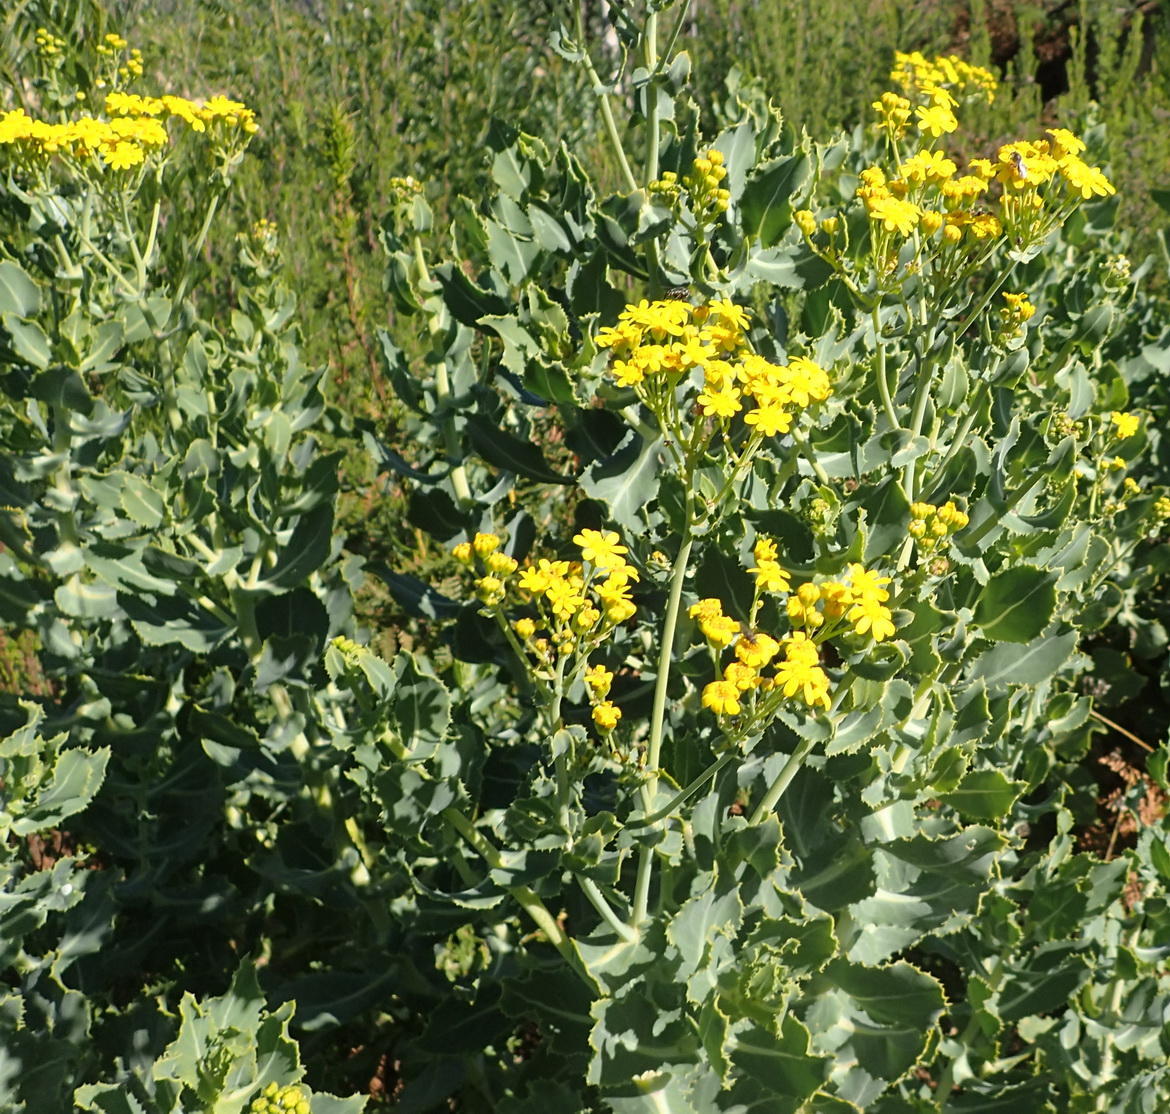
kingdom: Plantae
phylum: Tracheophyta
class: Magnoliopsida
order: Asterales
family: Asteraceae
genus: Othonna
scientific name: Othonna parviflora
